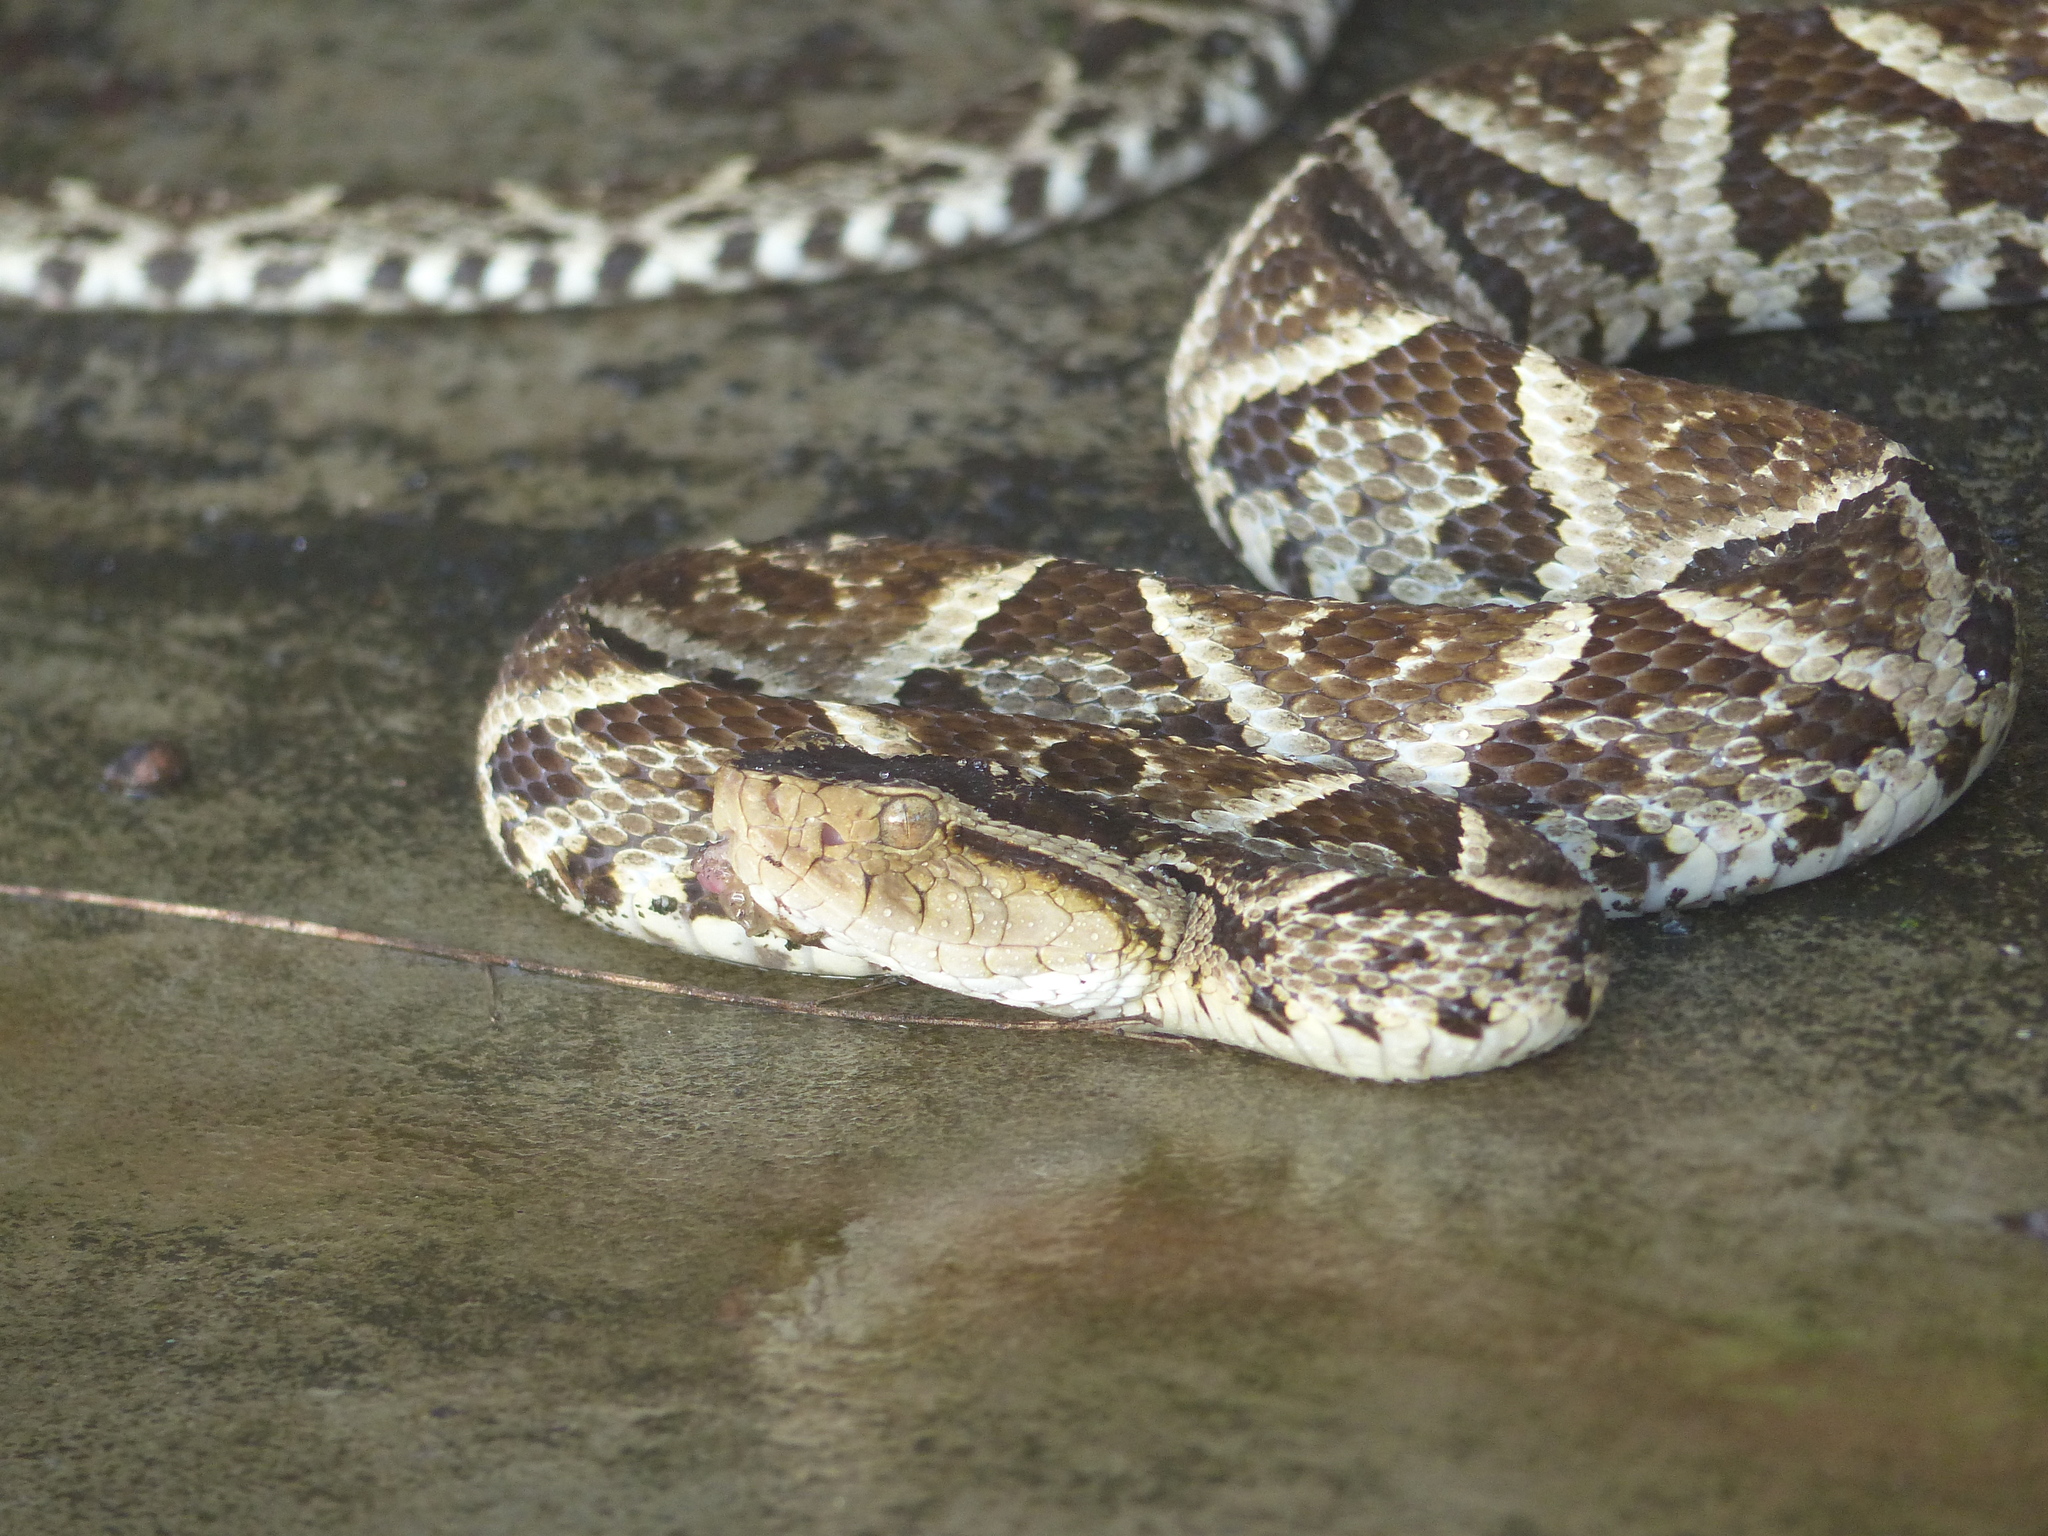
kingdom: Animalia
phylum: Chordata
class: Squamata
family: Viperidae
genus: Bothrops
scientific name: Bothrops asper
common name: Terciopelo
